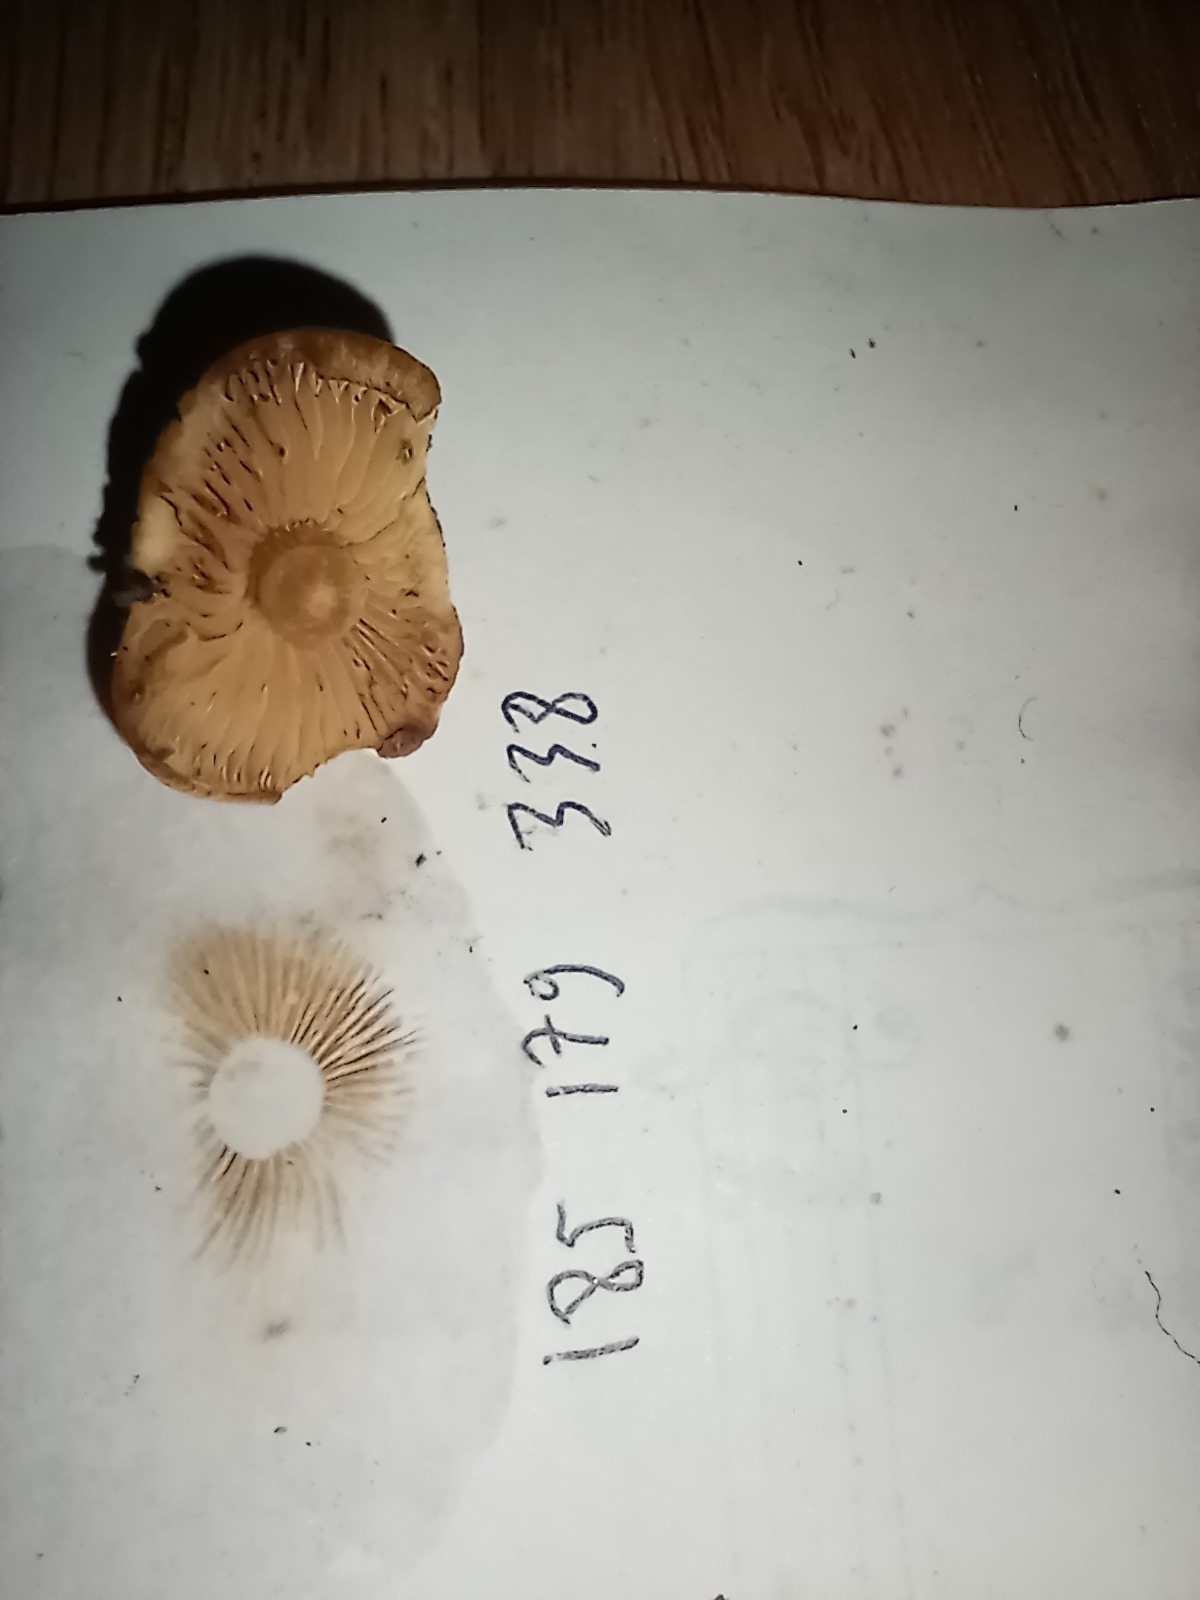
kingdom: Fungi
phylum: Basidiomycota
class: Agaricomycetes
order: Agaricales
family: Hymenogastraceae
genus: Gymnopilus
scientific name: Gymnopilus penetrans
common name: Common rustgill
